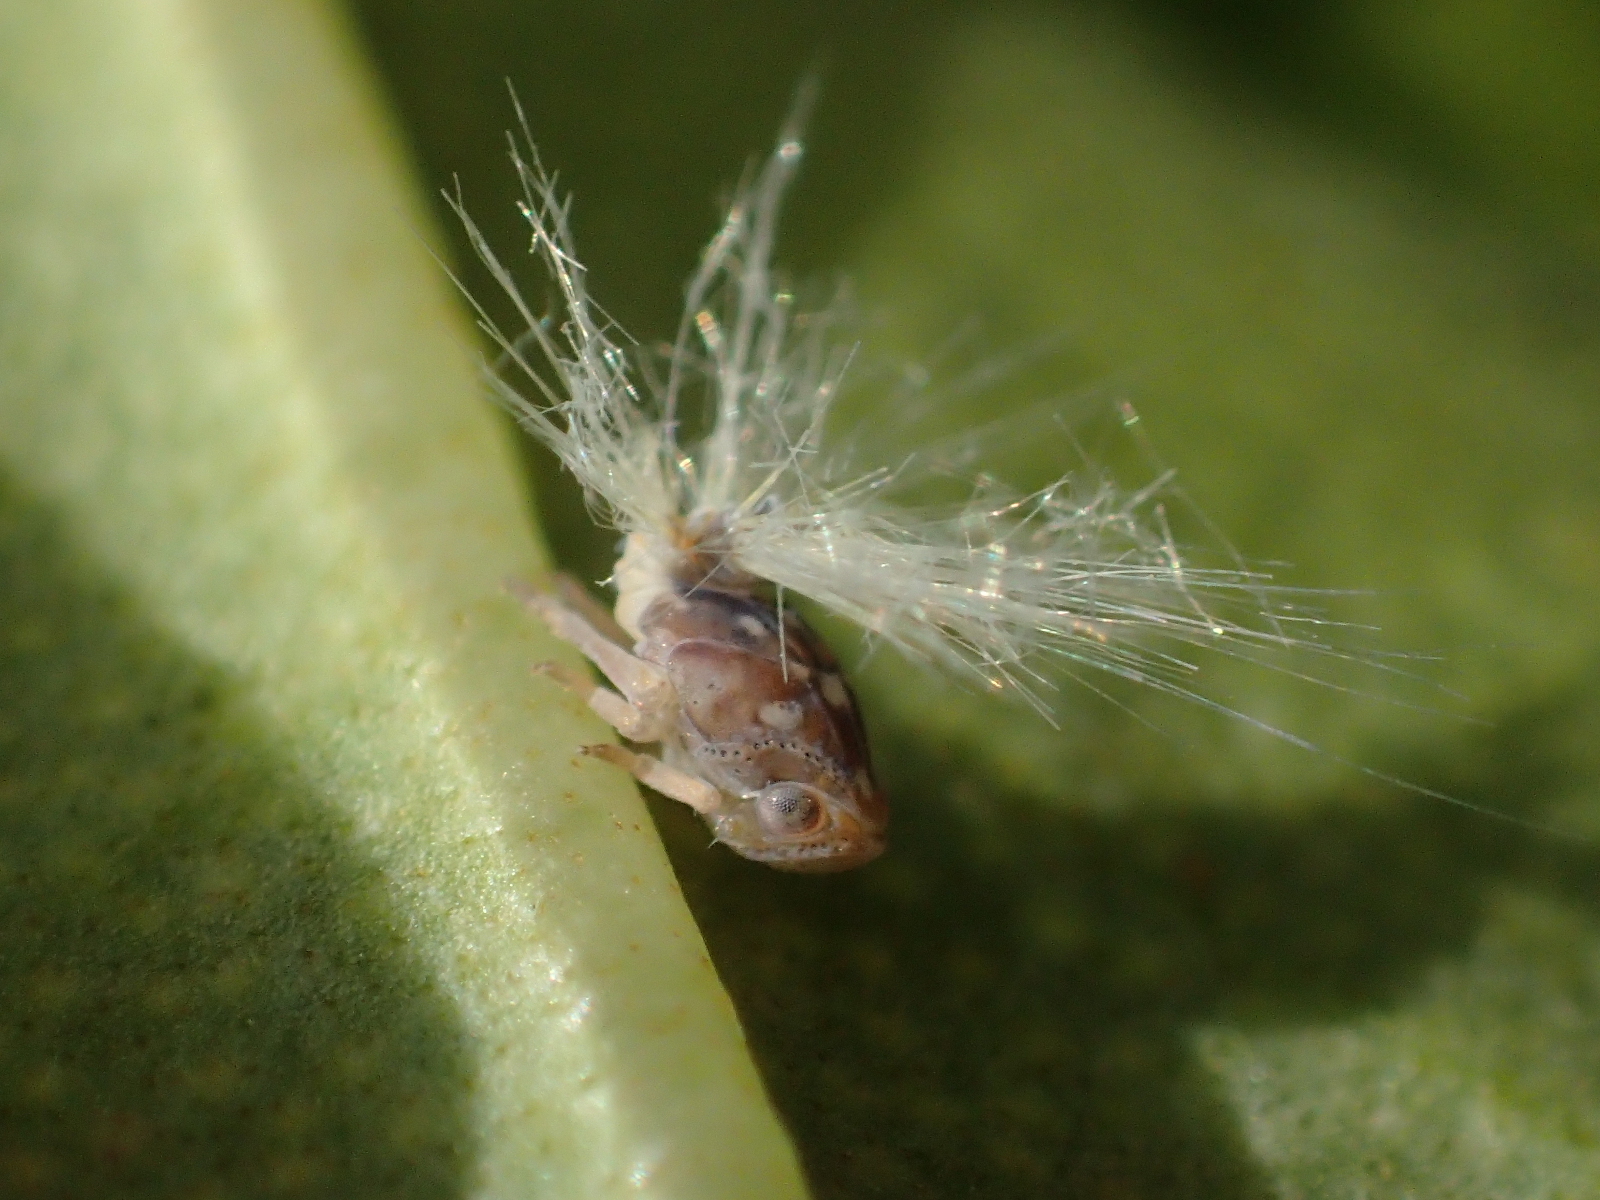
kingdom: Animalia
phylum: Arthropoda
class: Insecta
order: Hemiptera
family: Ricaniidae
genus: Scolypopa
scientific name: Scolypopa australis
